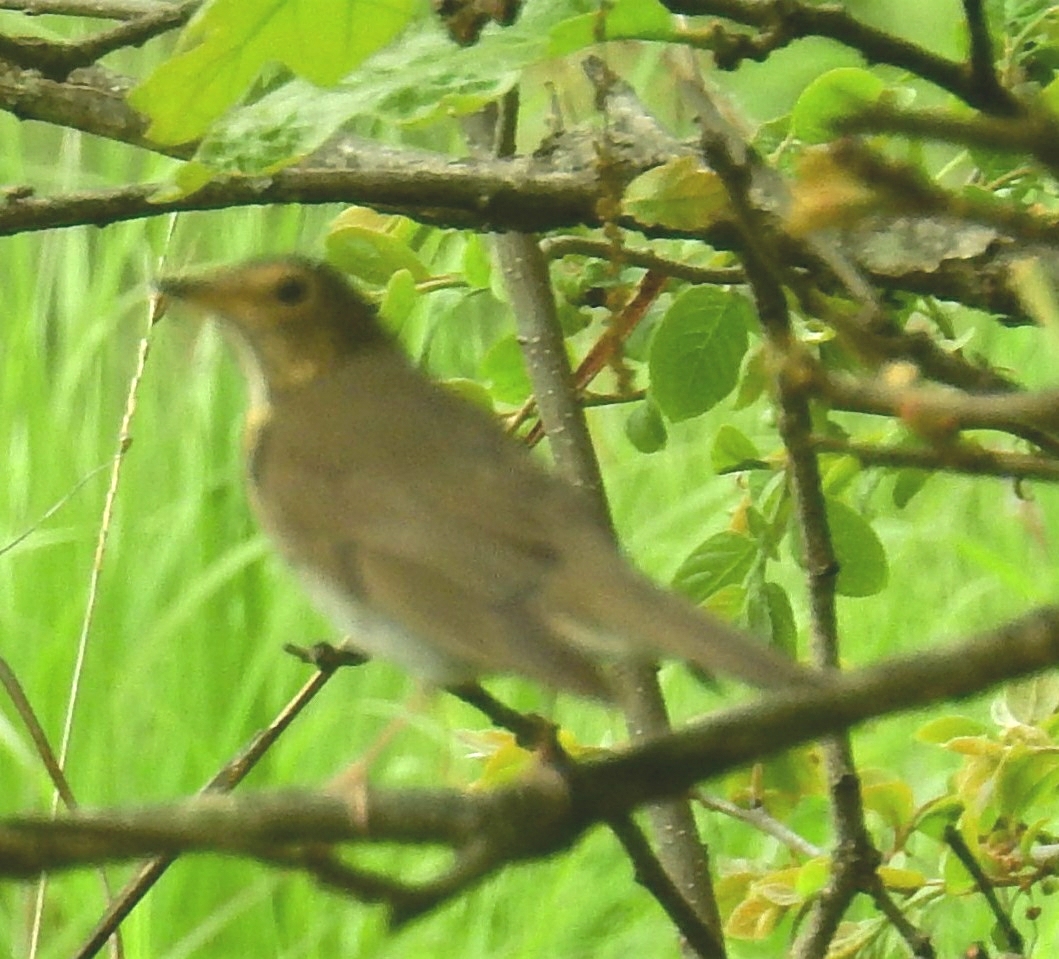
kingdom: Animalia
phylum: Chordata
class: Aves
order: Passeriformes
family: Turdidae
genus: Catharus
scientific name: Catharus ustulatus
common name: Swainson's thrush
